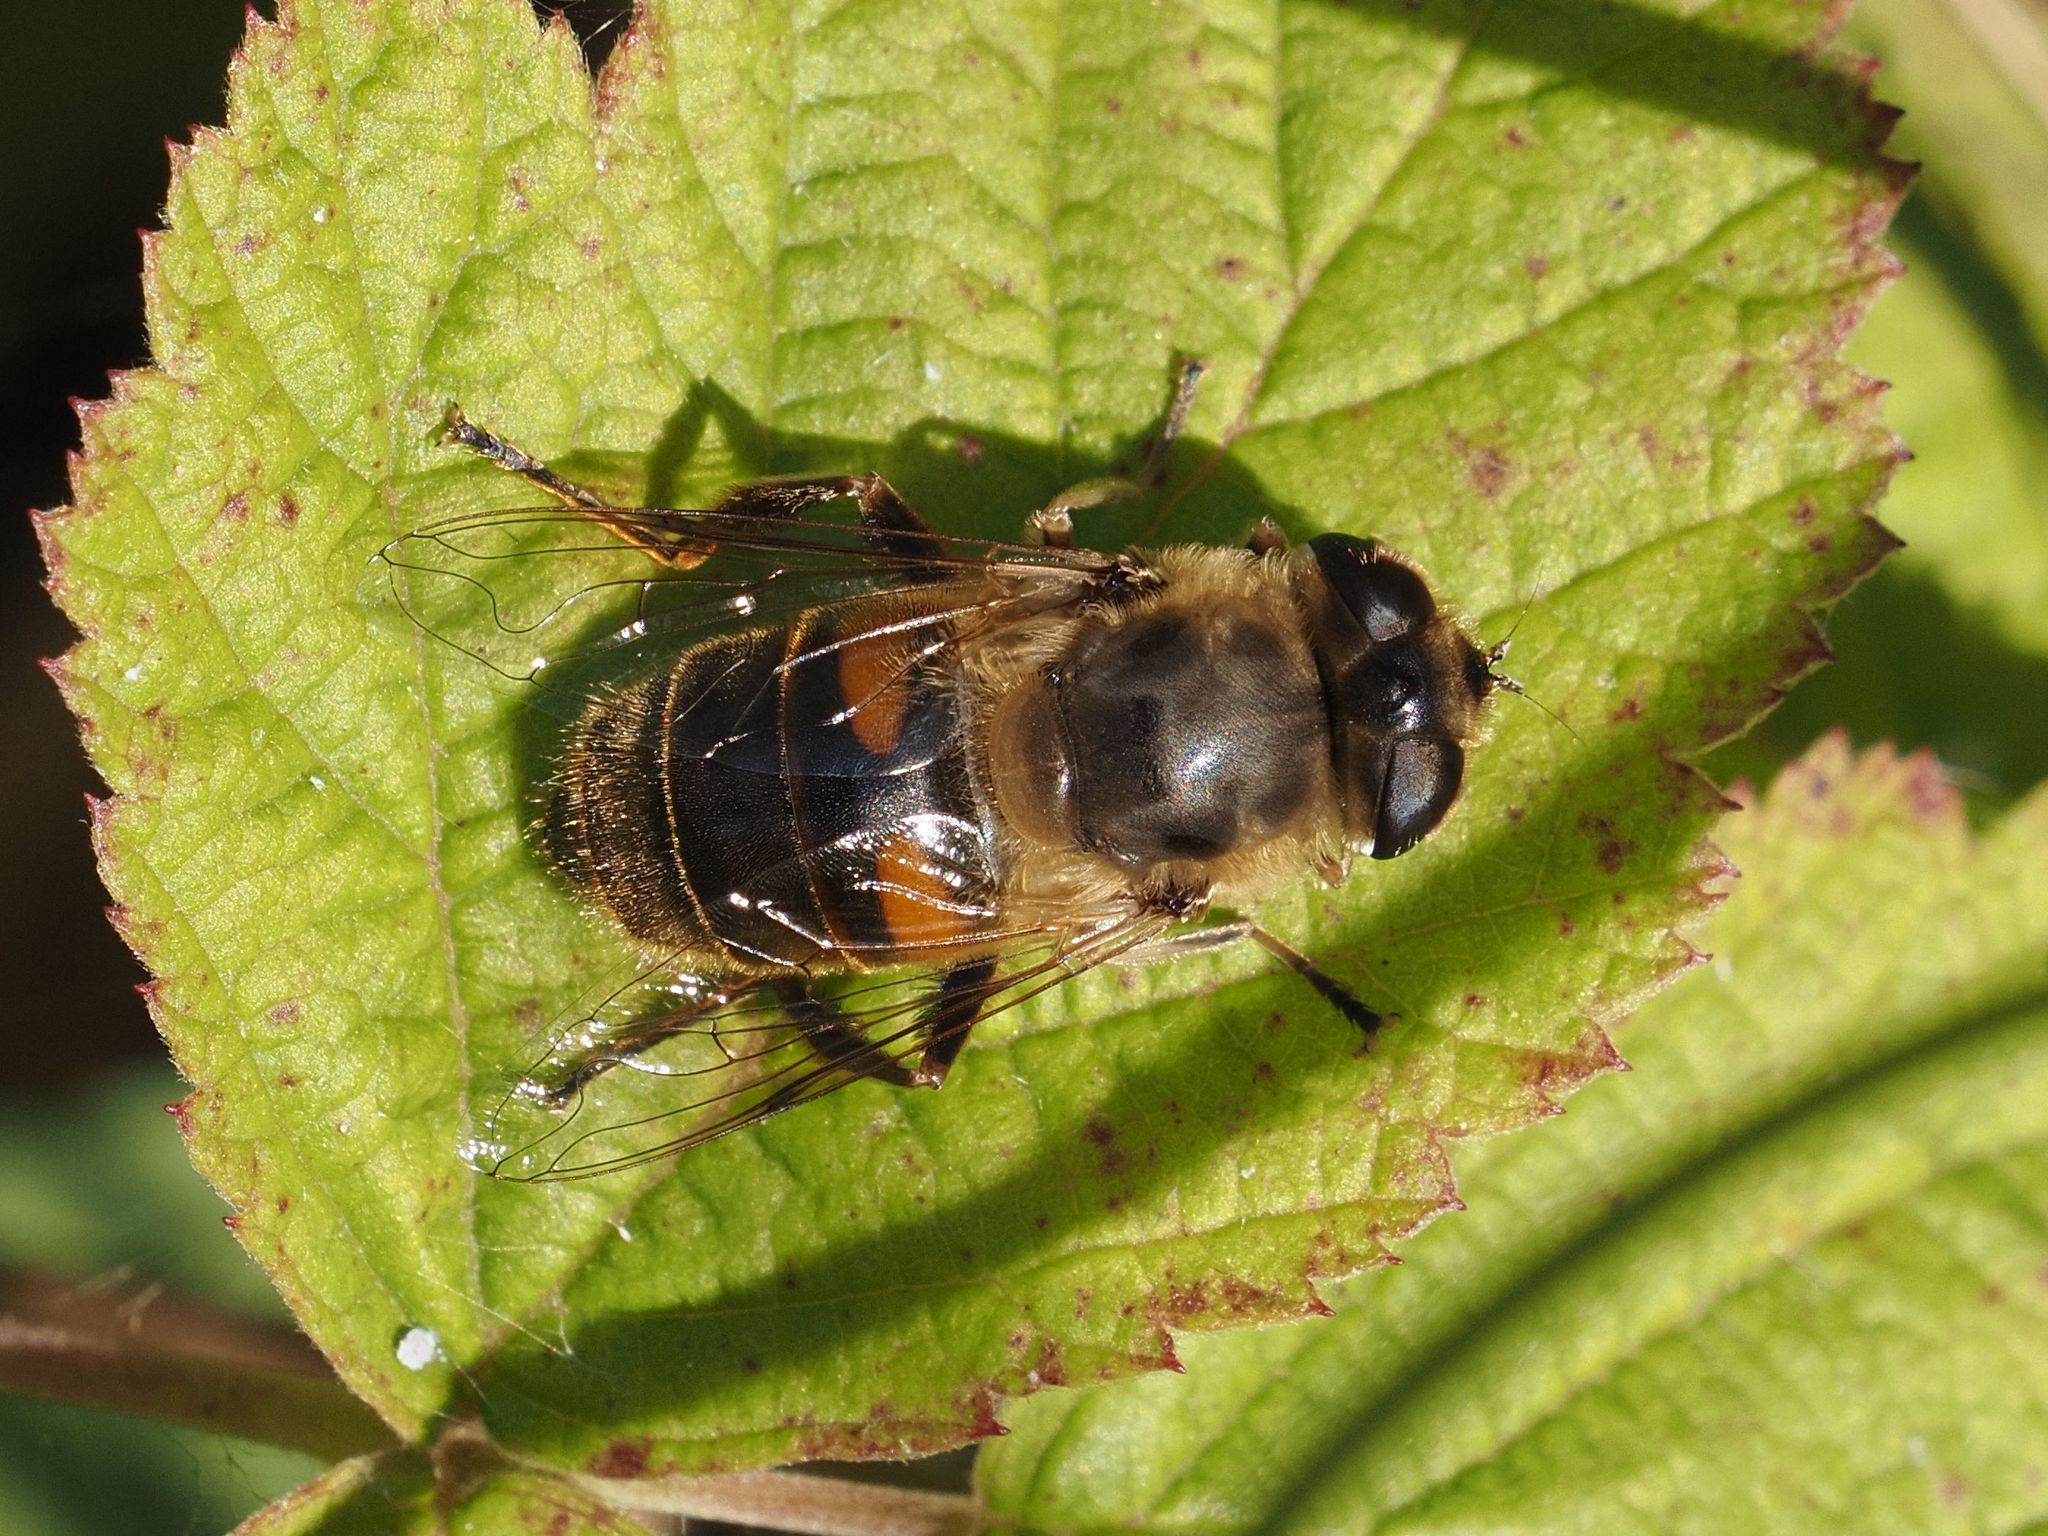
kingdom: Animalia
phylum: Arthropoda
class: Insecta
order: Diptera
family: Syrphidae
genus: Eristalis
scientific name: Eristalis tenax
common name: Drone fly
